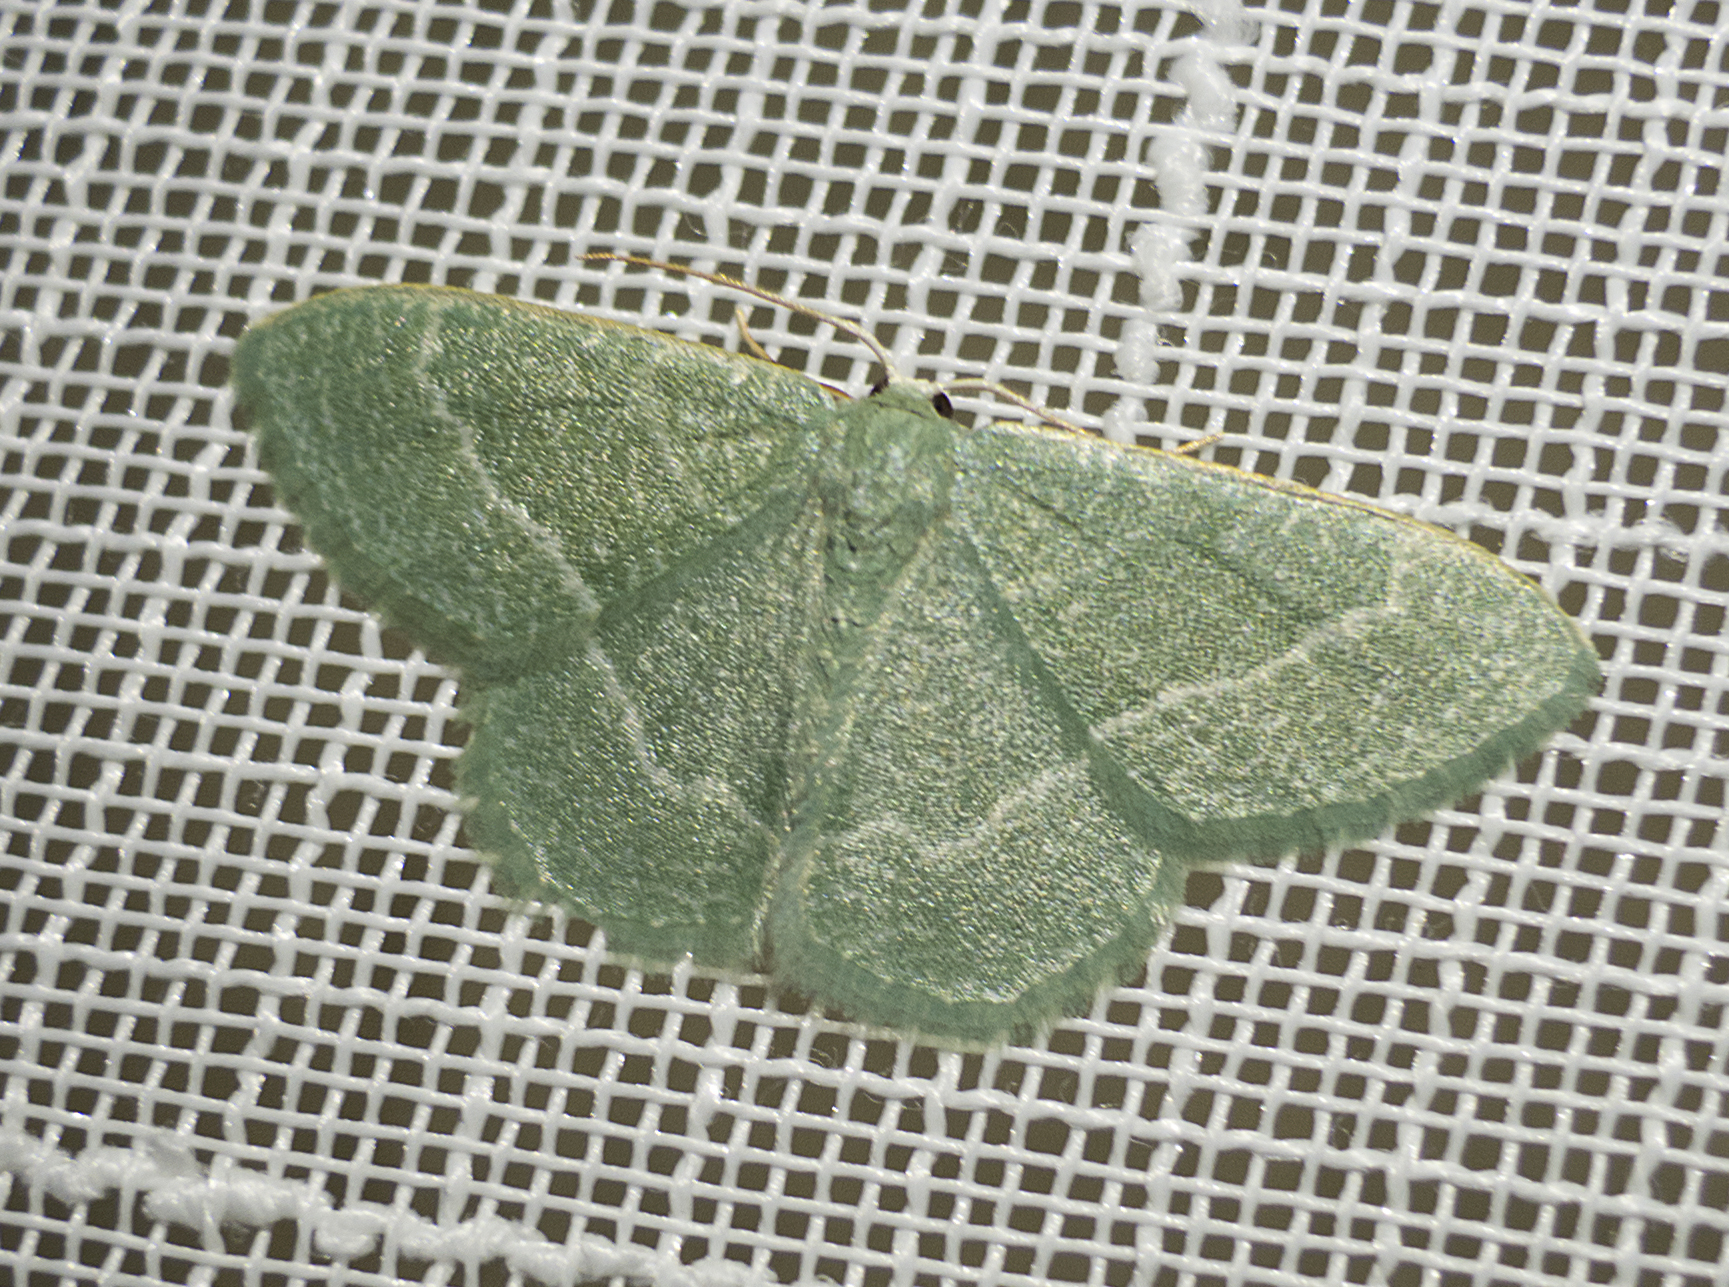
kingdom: Animalia
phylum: Arthropoda
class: Insecta
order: Lepidoptera
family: Geometridae
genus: Chlorissa
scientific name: Chlorissa etruscaria
